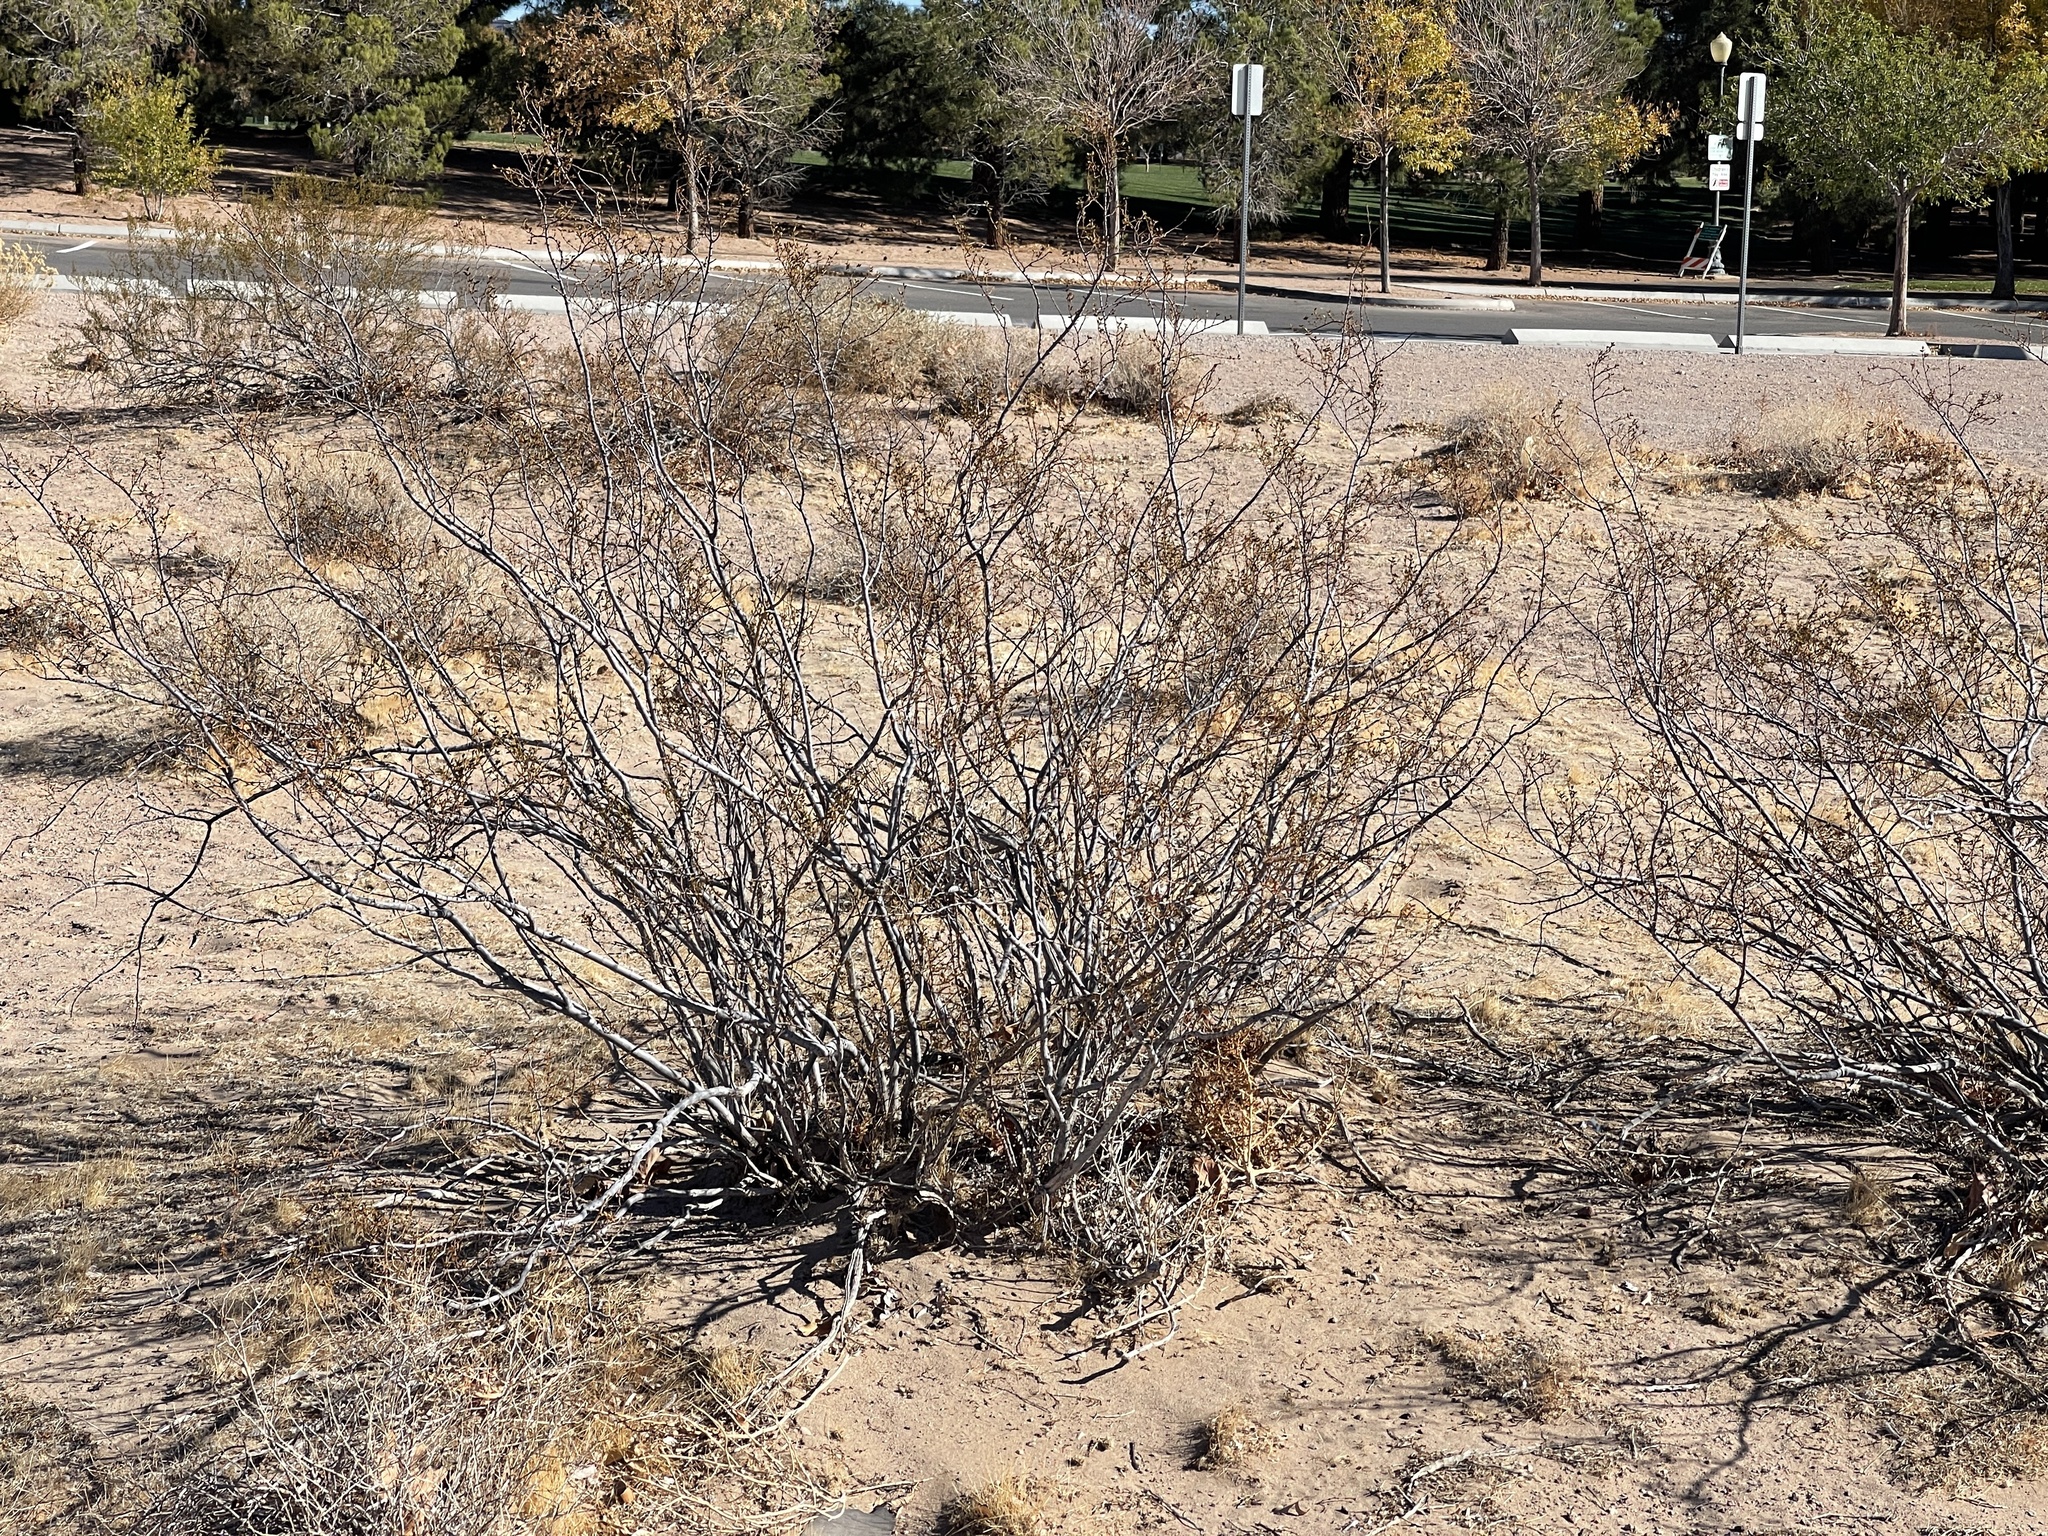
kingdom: Plantae
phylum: Tracheophyta
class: Magnoliopsida
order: Zygophyllales
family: Zygophyllaceae
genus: Larrea
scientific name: Larrea tridentata
